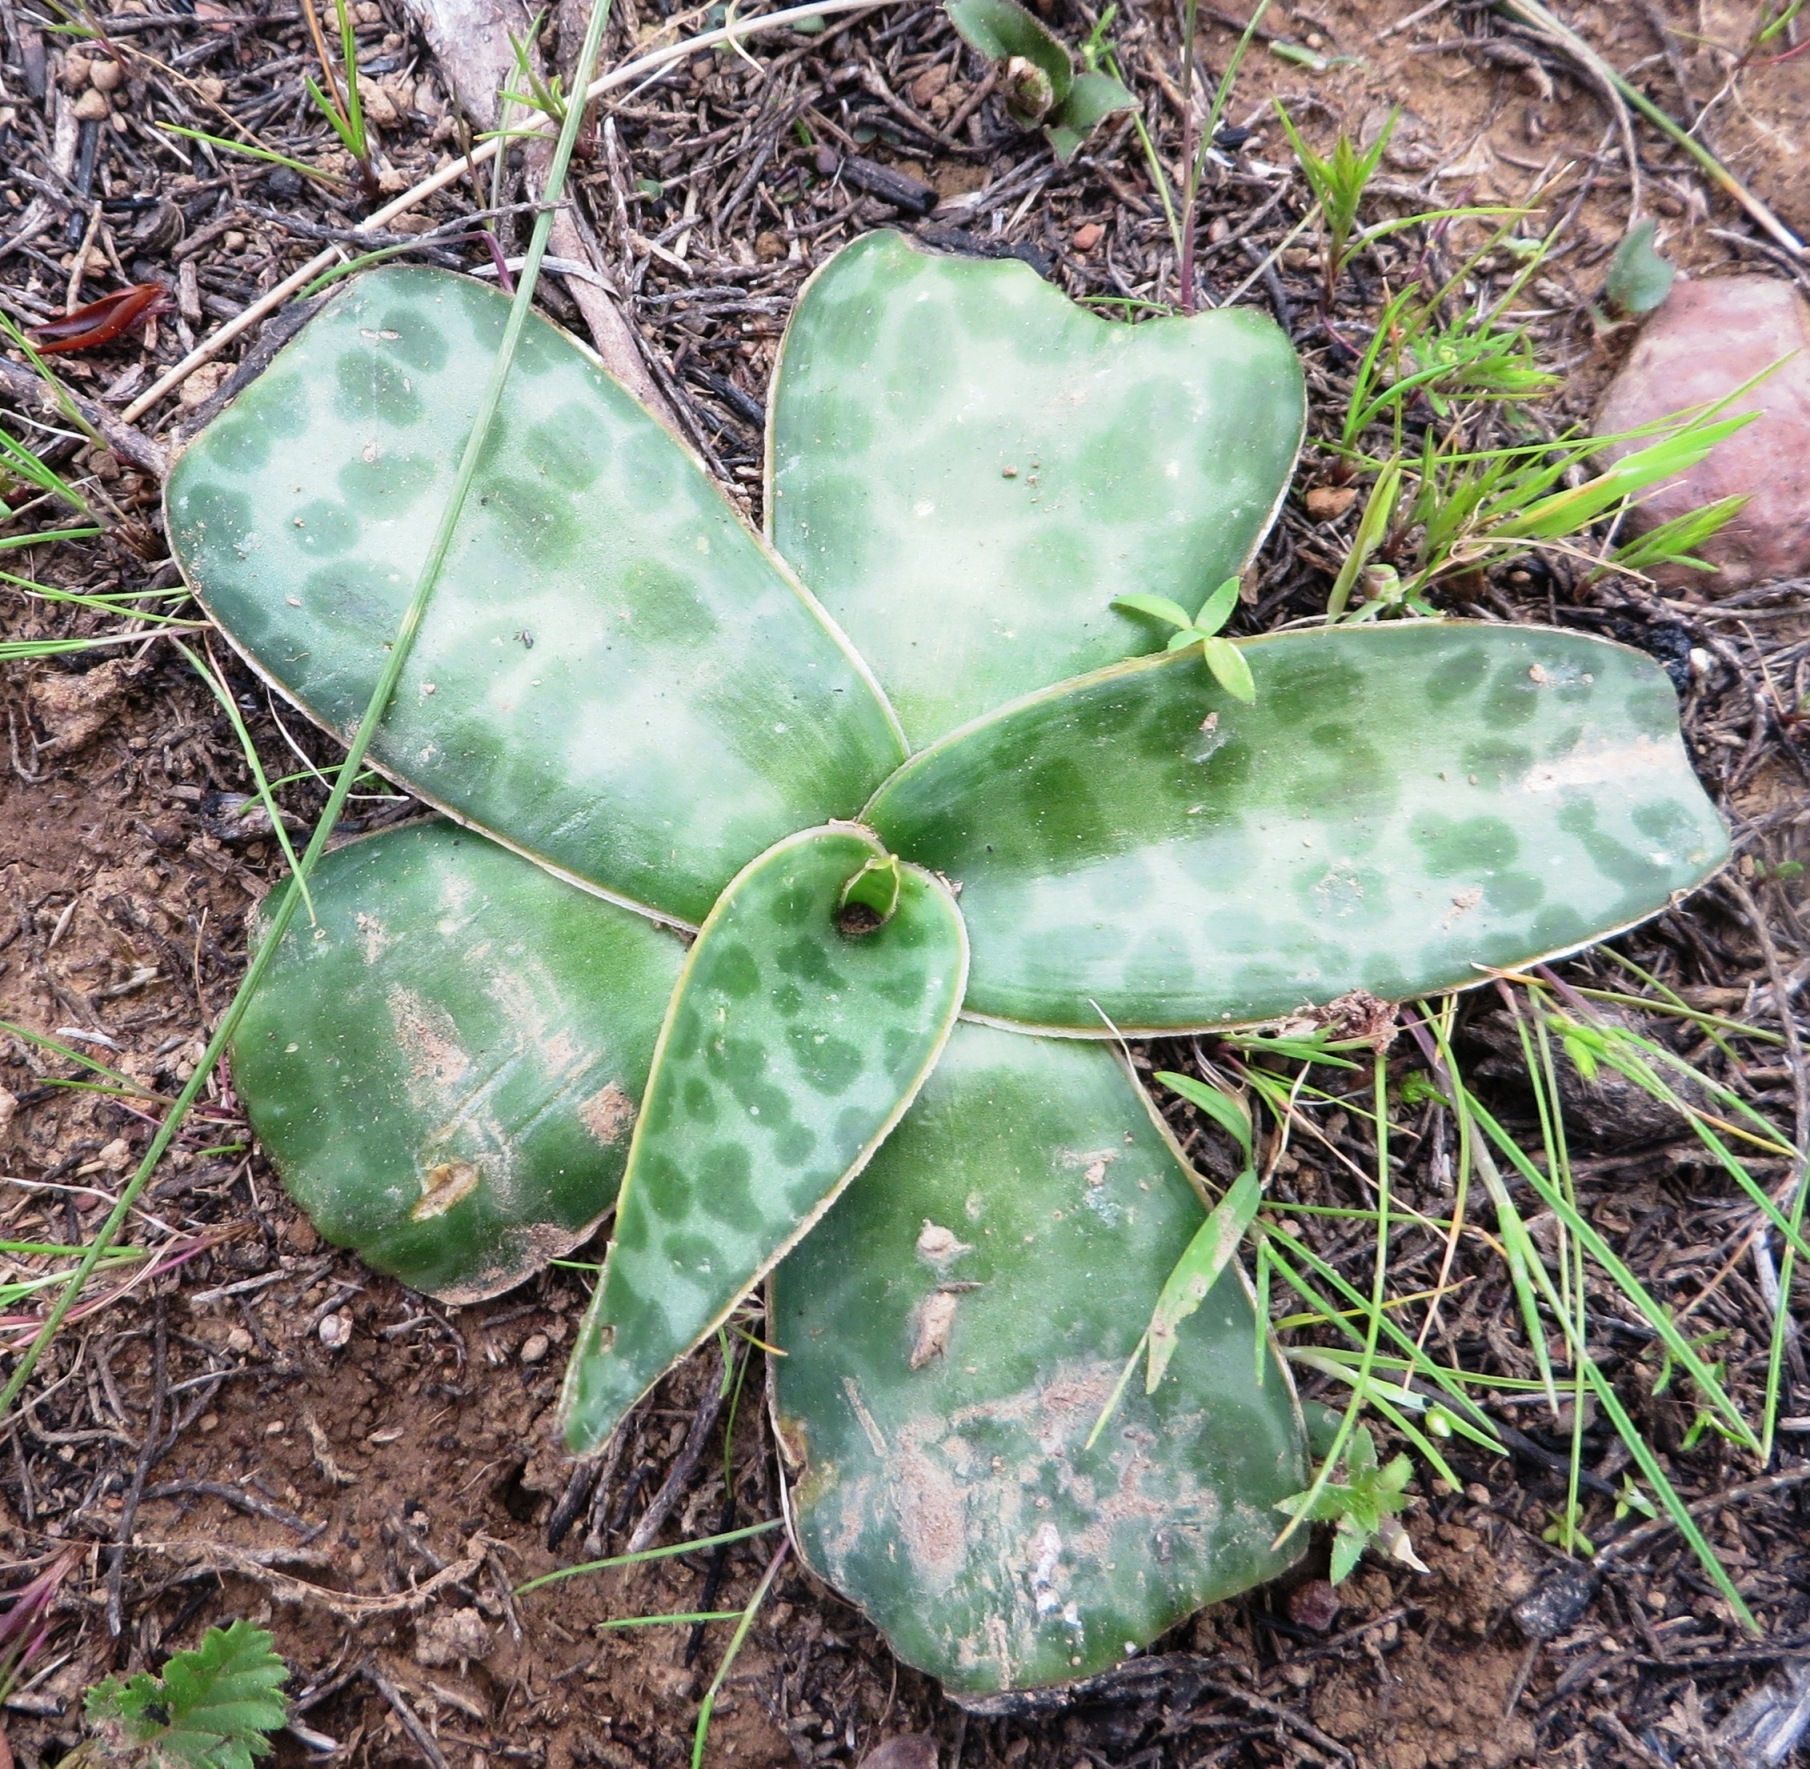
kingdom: Plantae
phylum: Tracheophyta
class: Liliopsida
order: Asparagales
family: Asparagaceae
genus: Ledebouria
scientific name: Ledebouria revoluta
